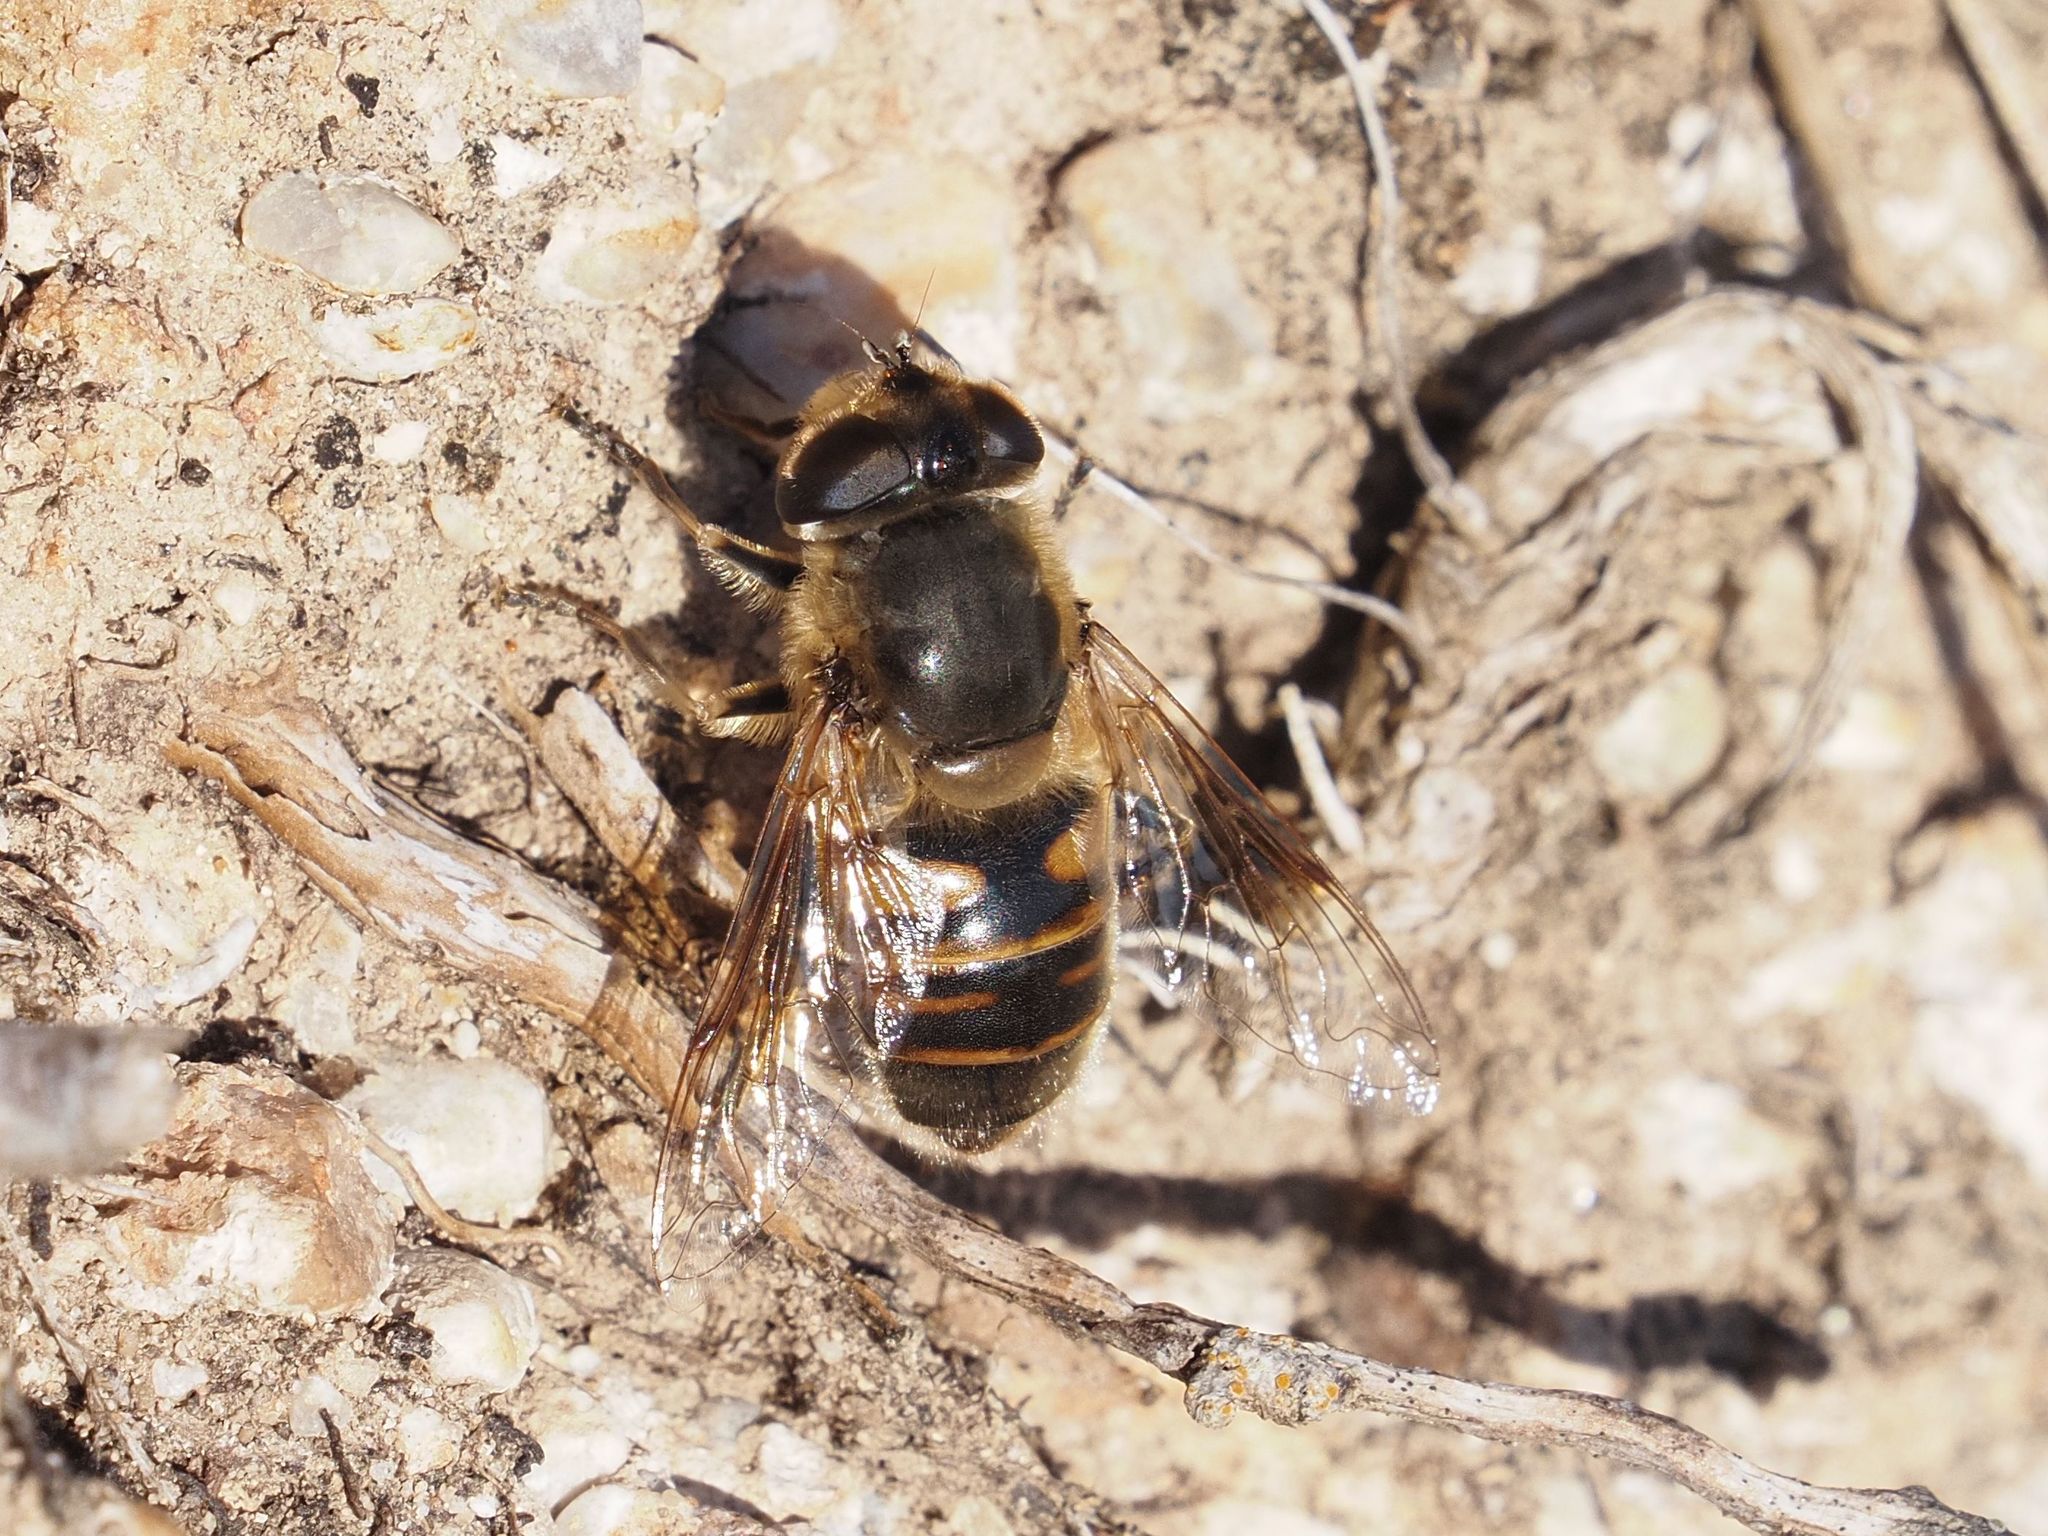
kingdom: Animalia
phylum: Arthropoda
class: Insecta
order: Diptera
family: Syrphidae
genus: Eristalis
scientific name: Eristalis tenax
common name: Drone fly
